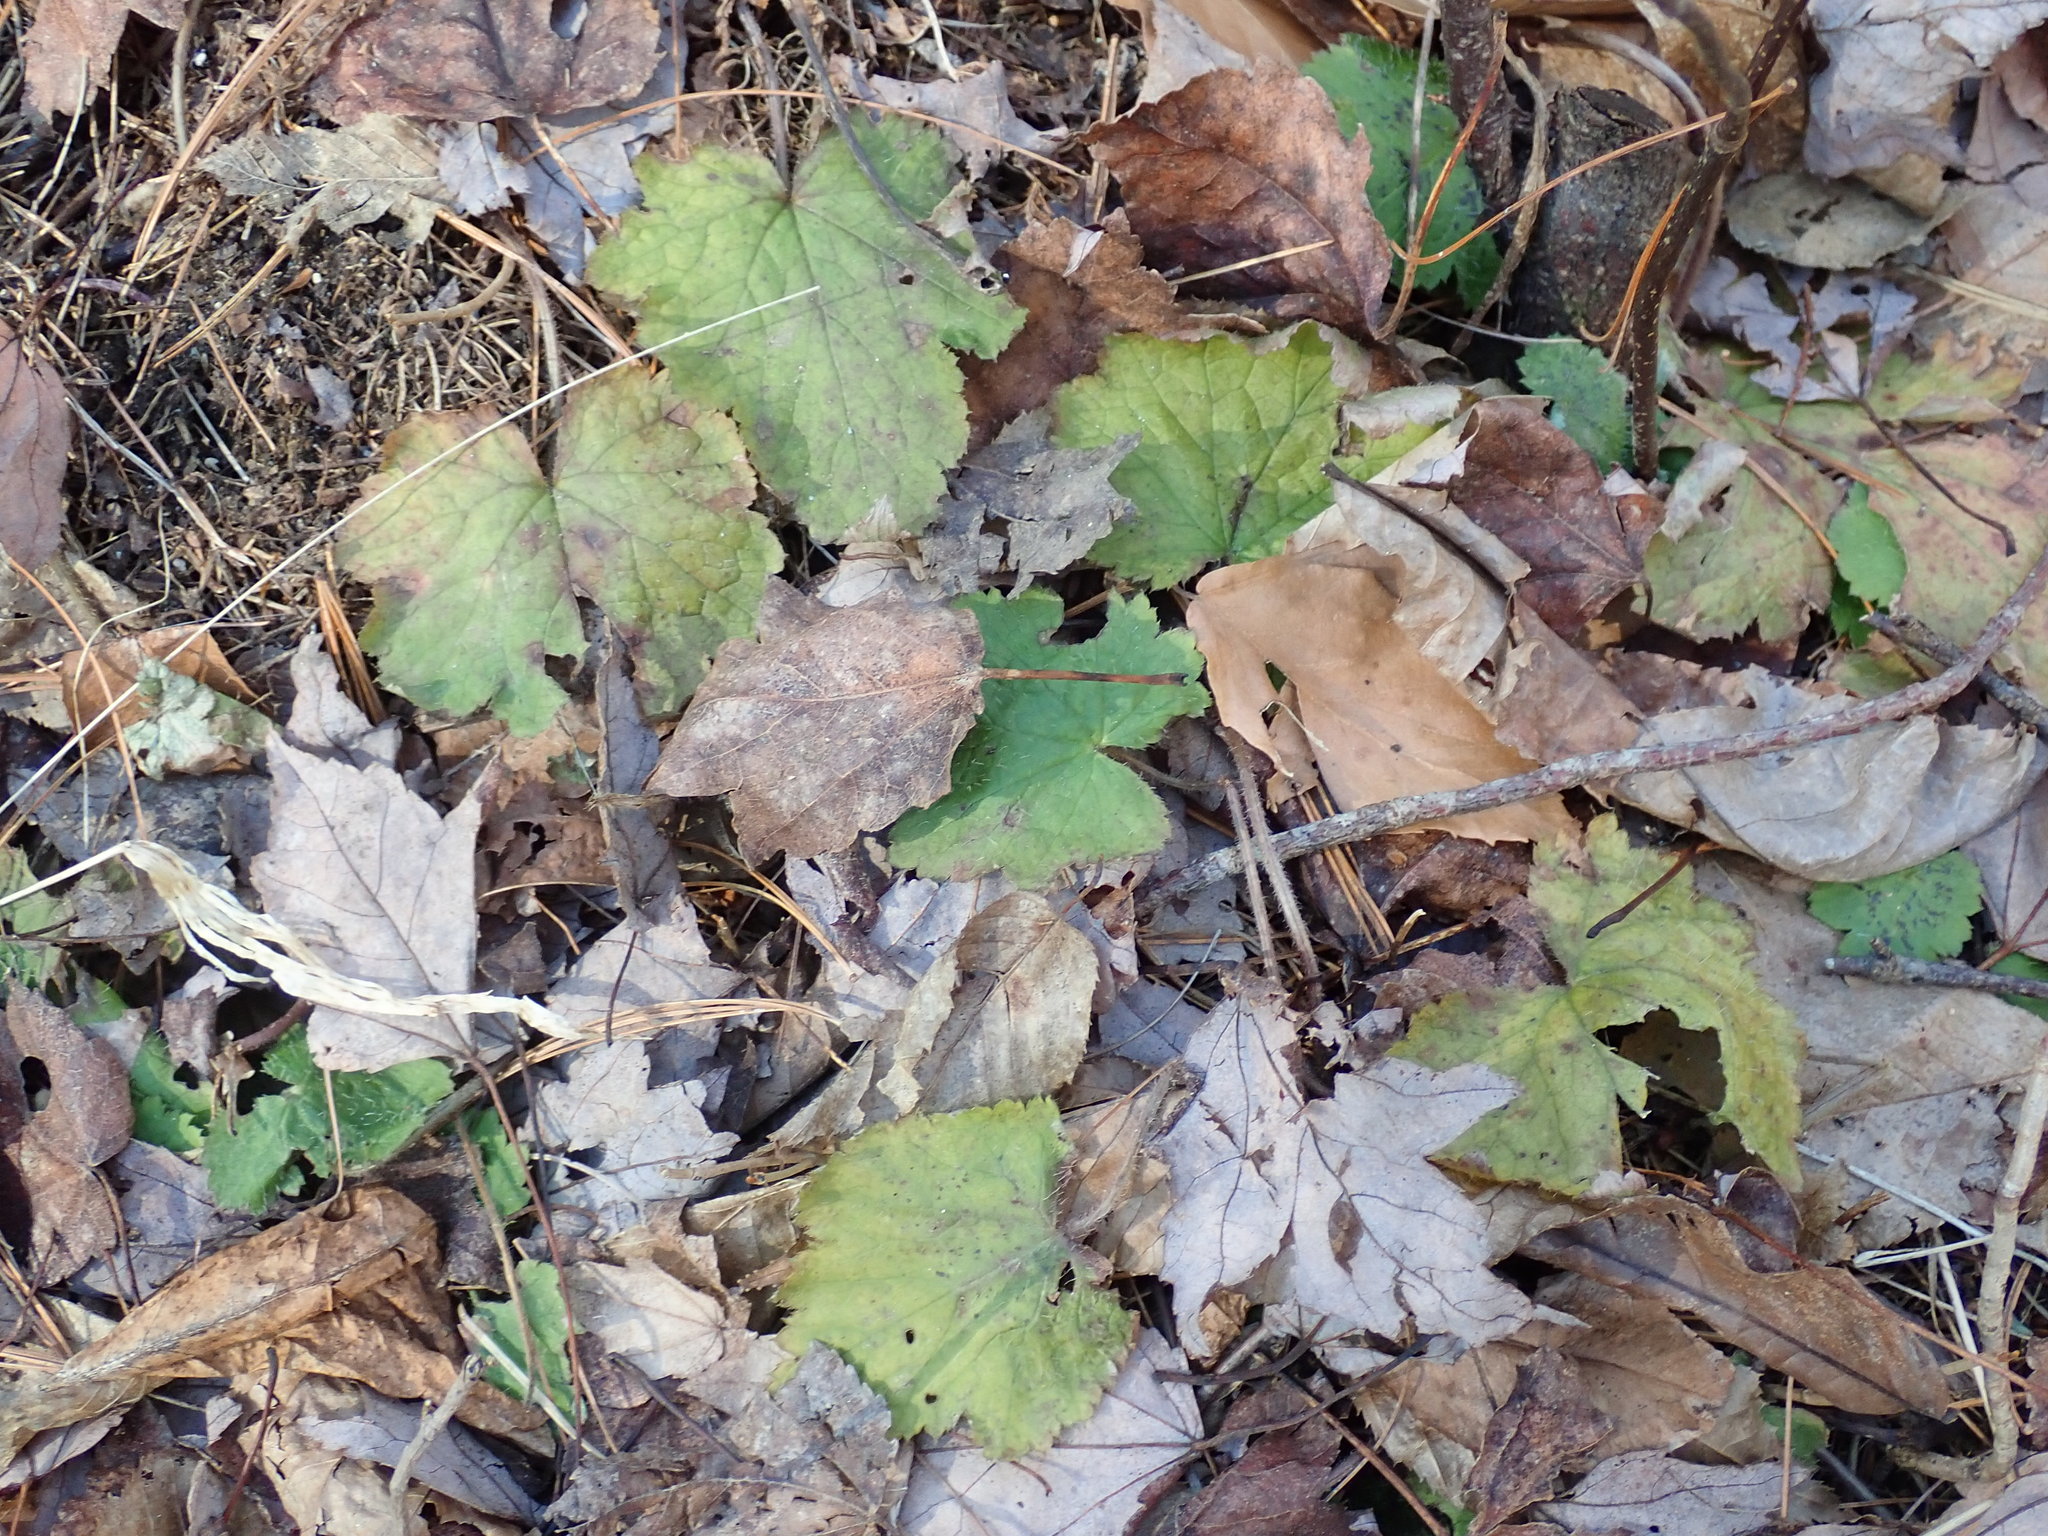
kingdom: Plantae
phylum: Tracheophyta
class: Magnoliopsida
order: Saxifragales
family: Saxifragaceae
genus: Tiarella
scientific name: Tiarella stolonifera
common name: Stoloniferous foamflower
